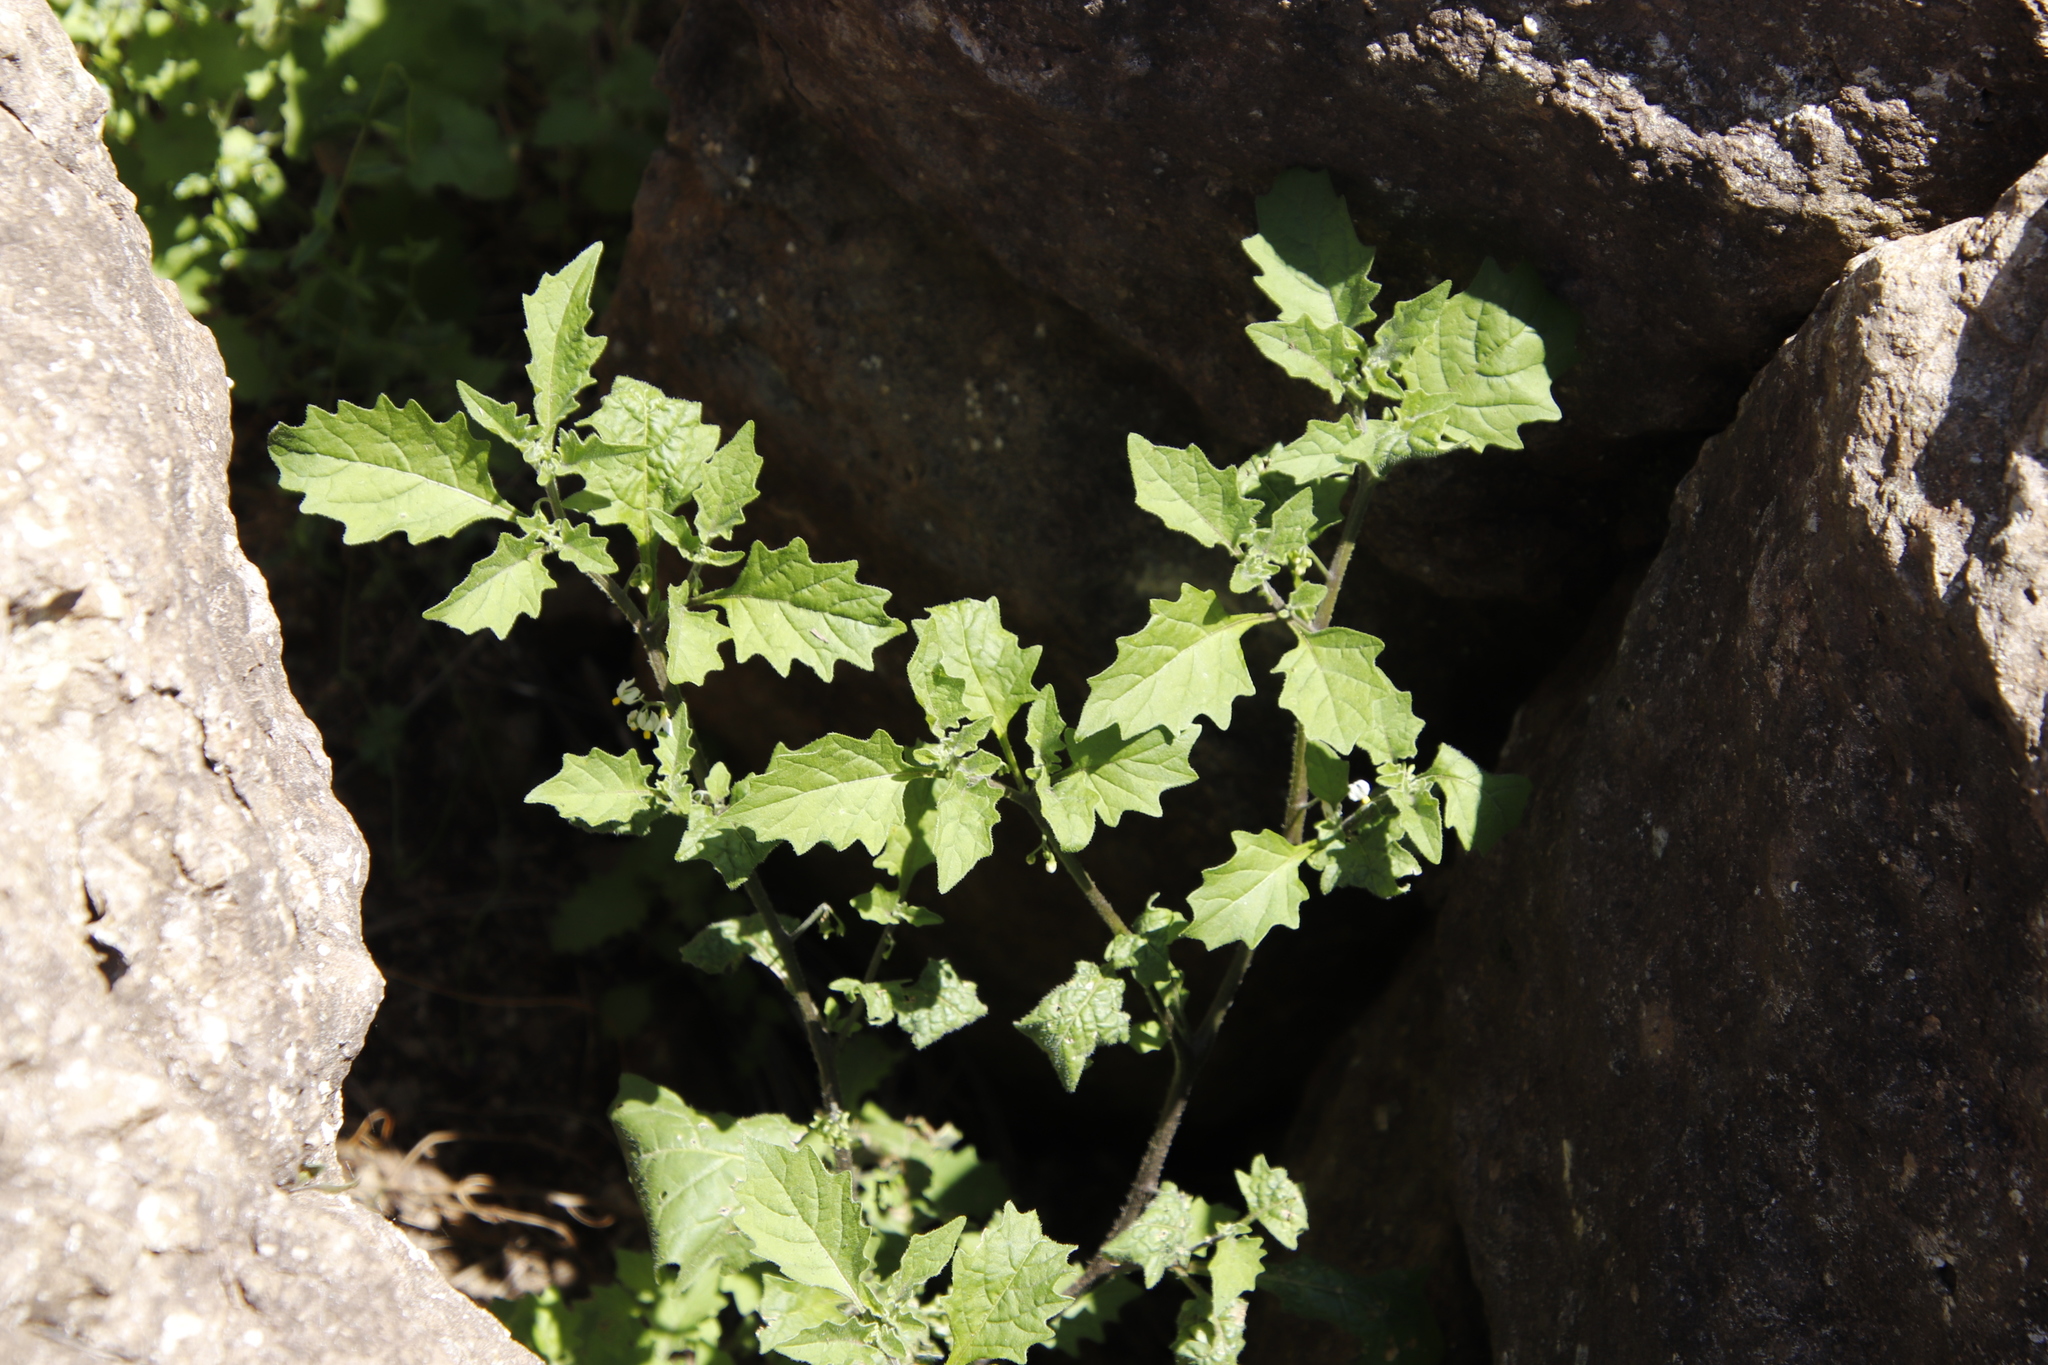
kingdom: Plantae
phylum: Tracheophyta
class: Magnoliopsida
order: Solanales
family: Solanaceae
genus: Solanum
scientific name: Solanum retroflexum
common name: Wonderberry
